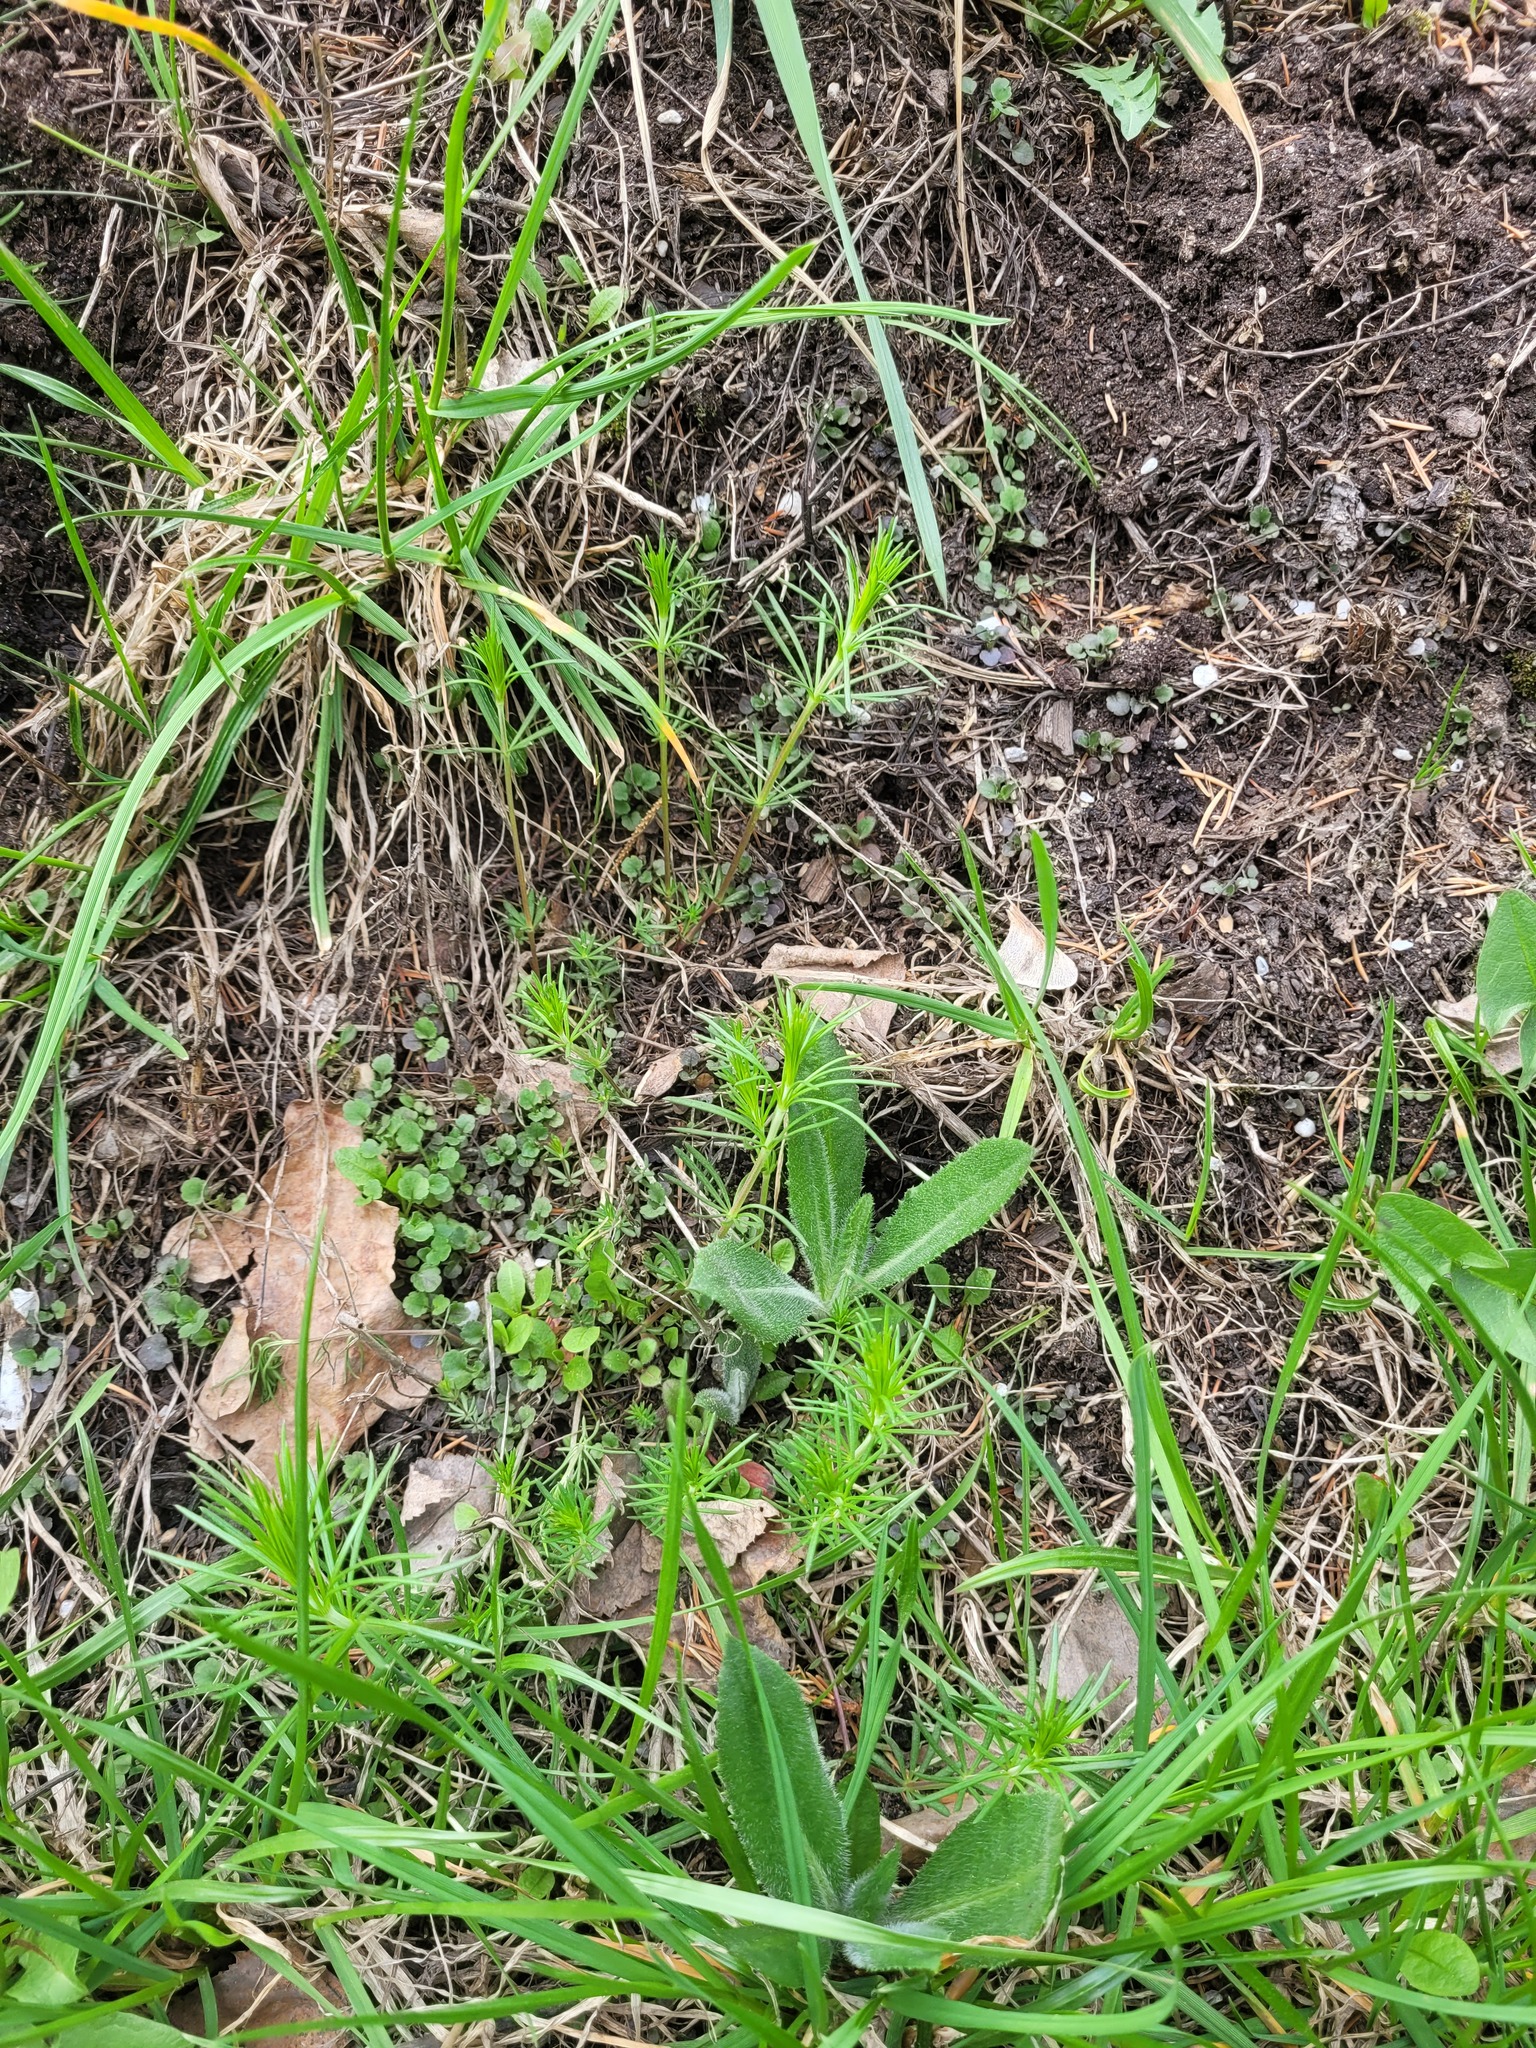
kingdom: Plantae
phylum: Tracheophyta
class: Magnoliopsida
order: Gentianales
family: Rubiaceae
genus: Galium
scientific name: Galium verum
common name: Lady's bedstraw
